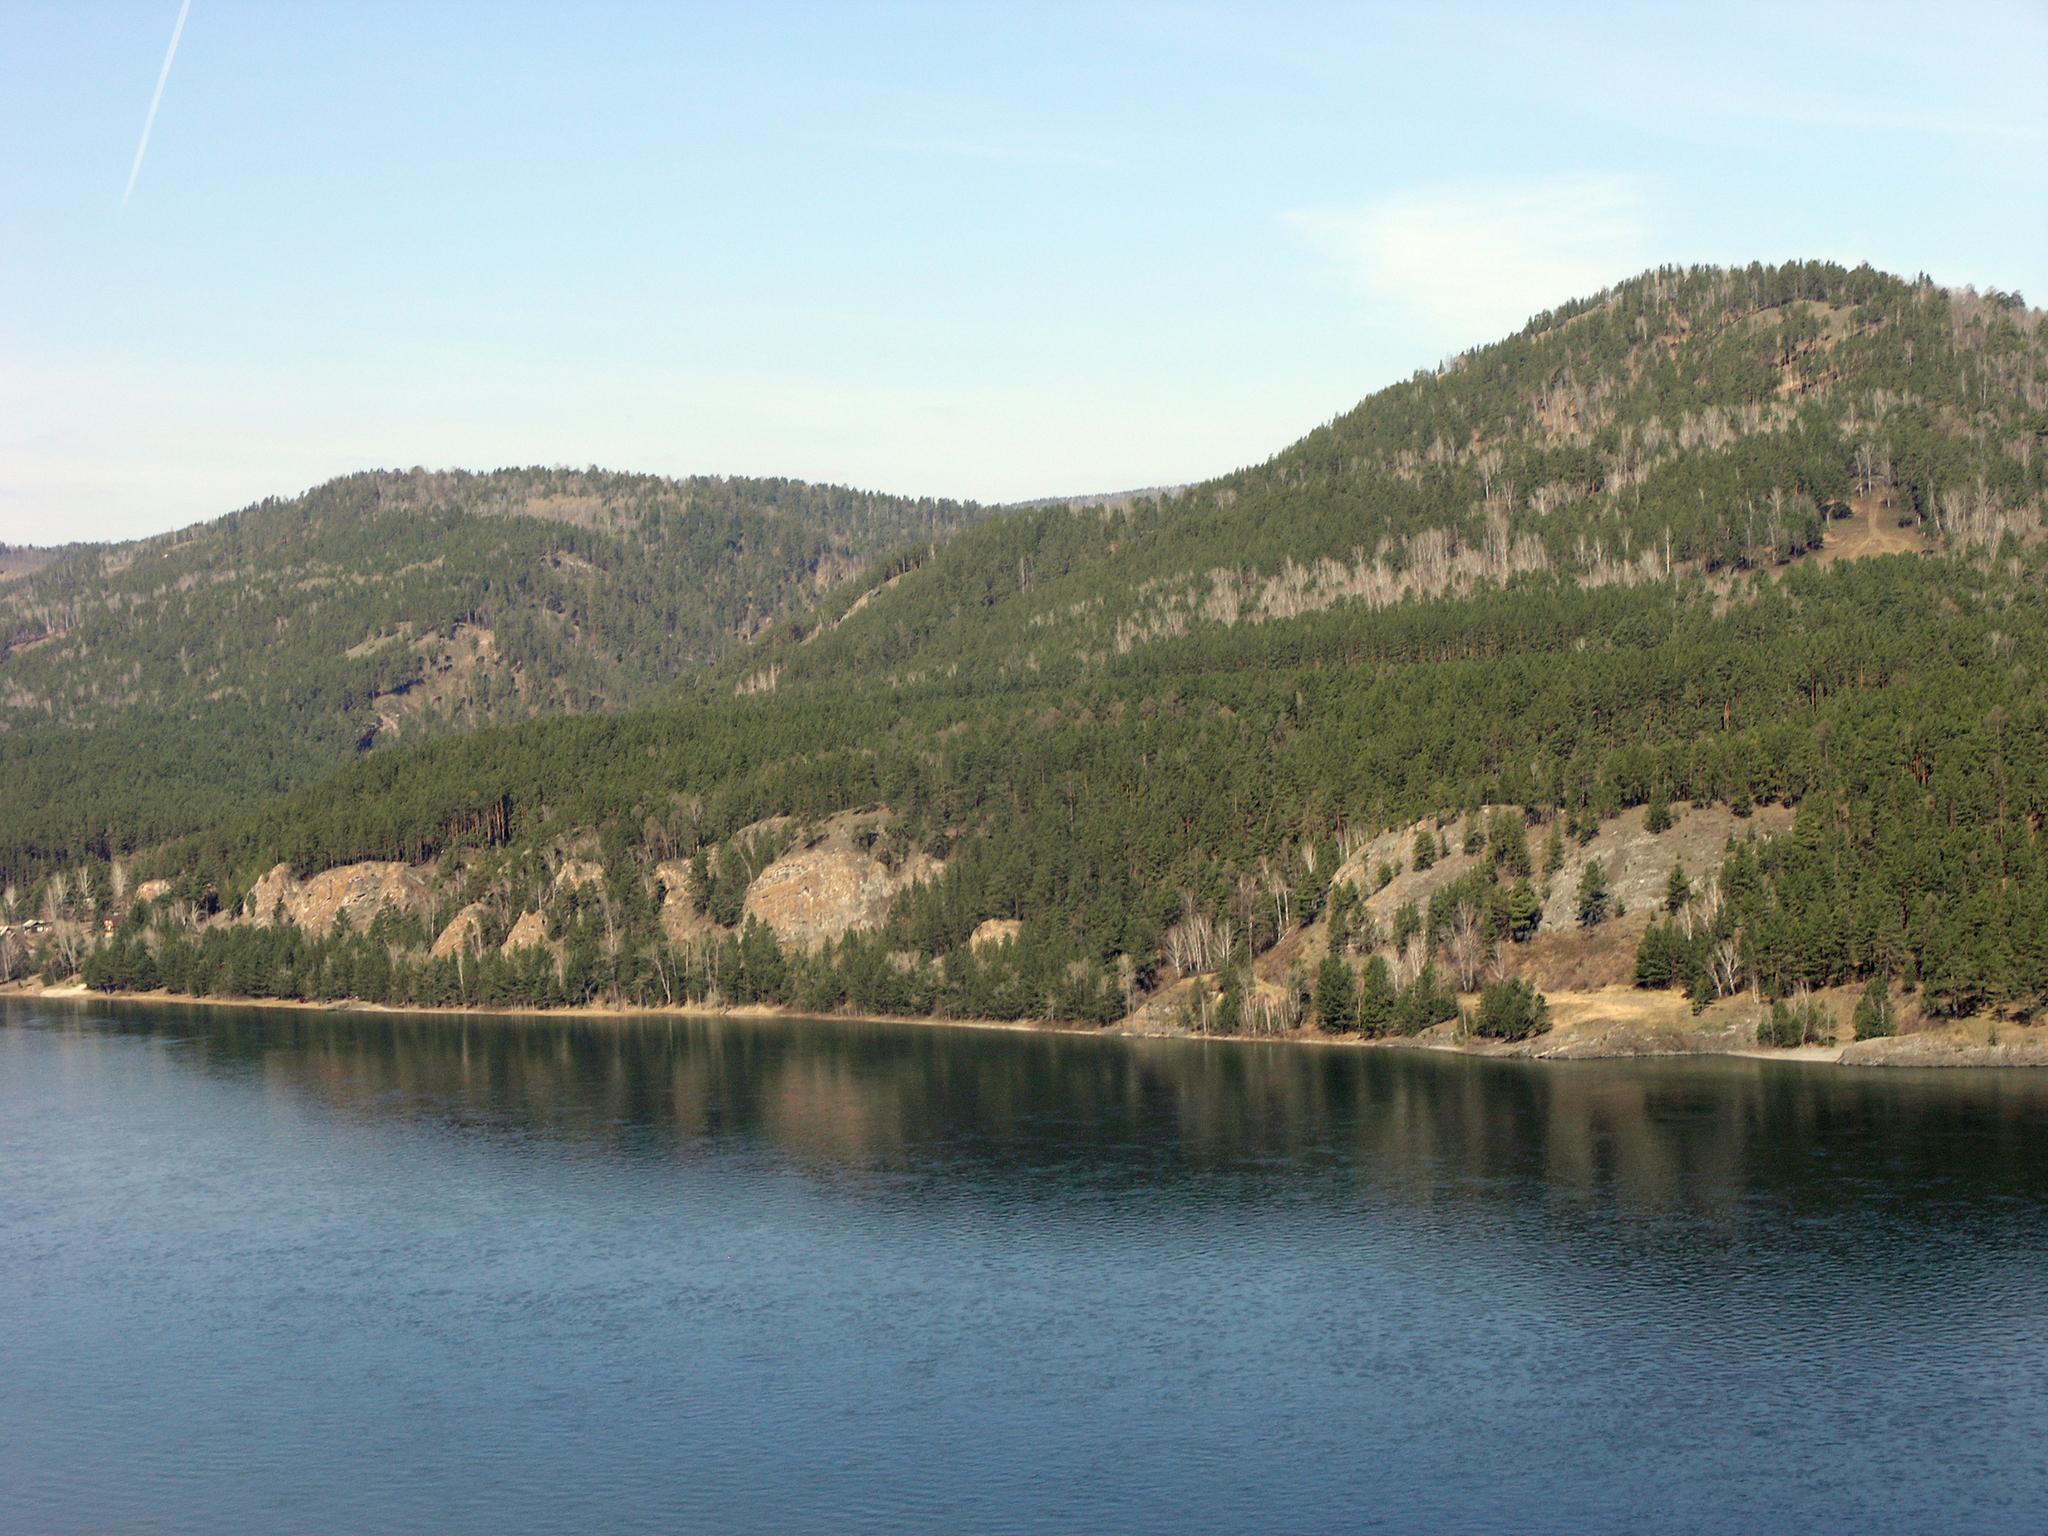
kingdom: Plantae
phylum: Tracheophyta
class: Pinopsida
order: Pinales
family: Pinaceae
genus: Pinus
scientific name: Pinus sylvestris
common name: Scots pine
